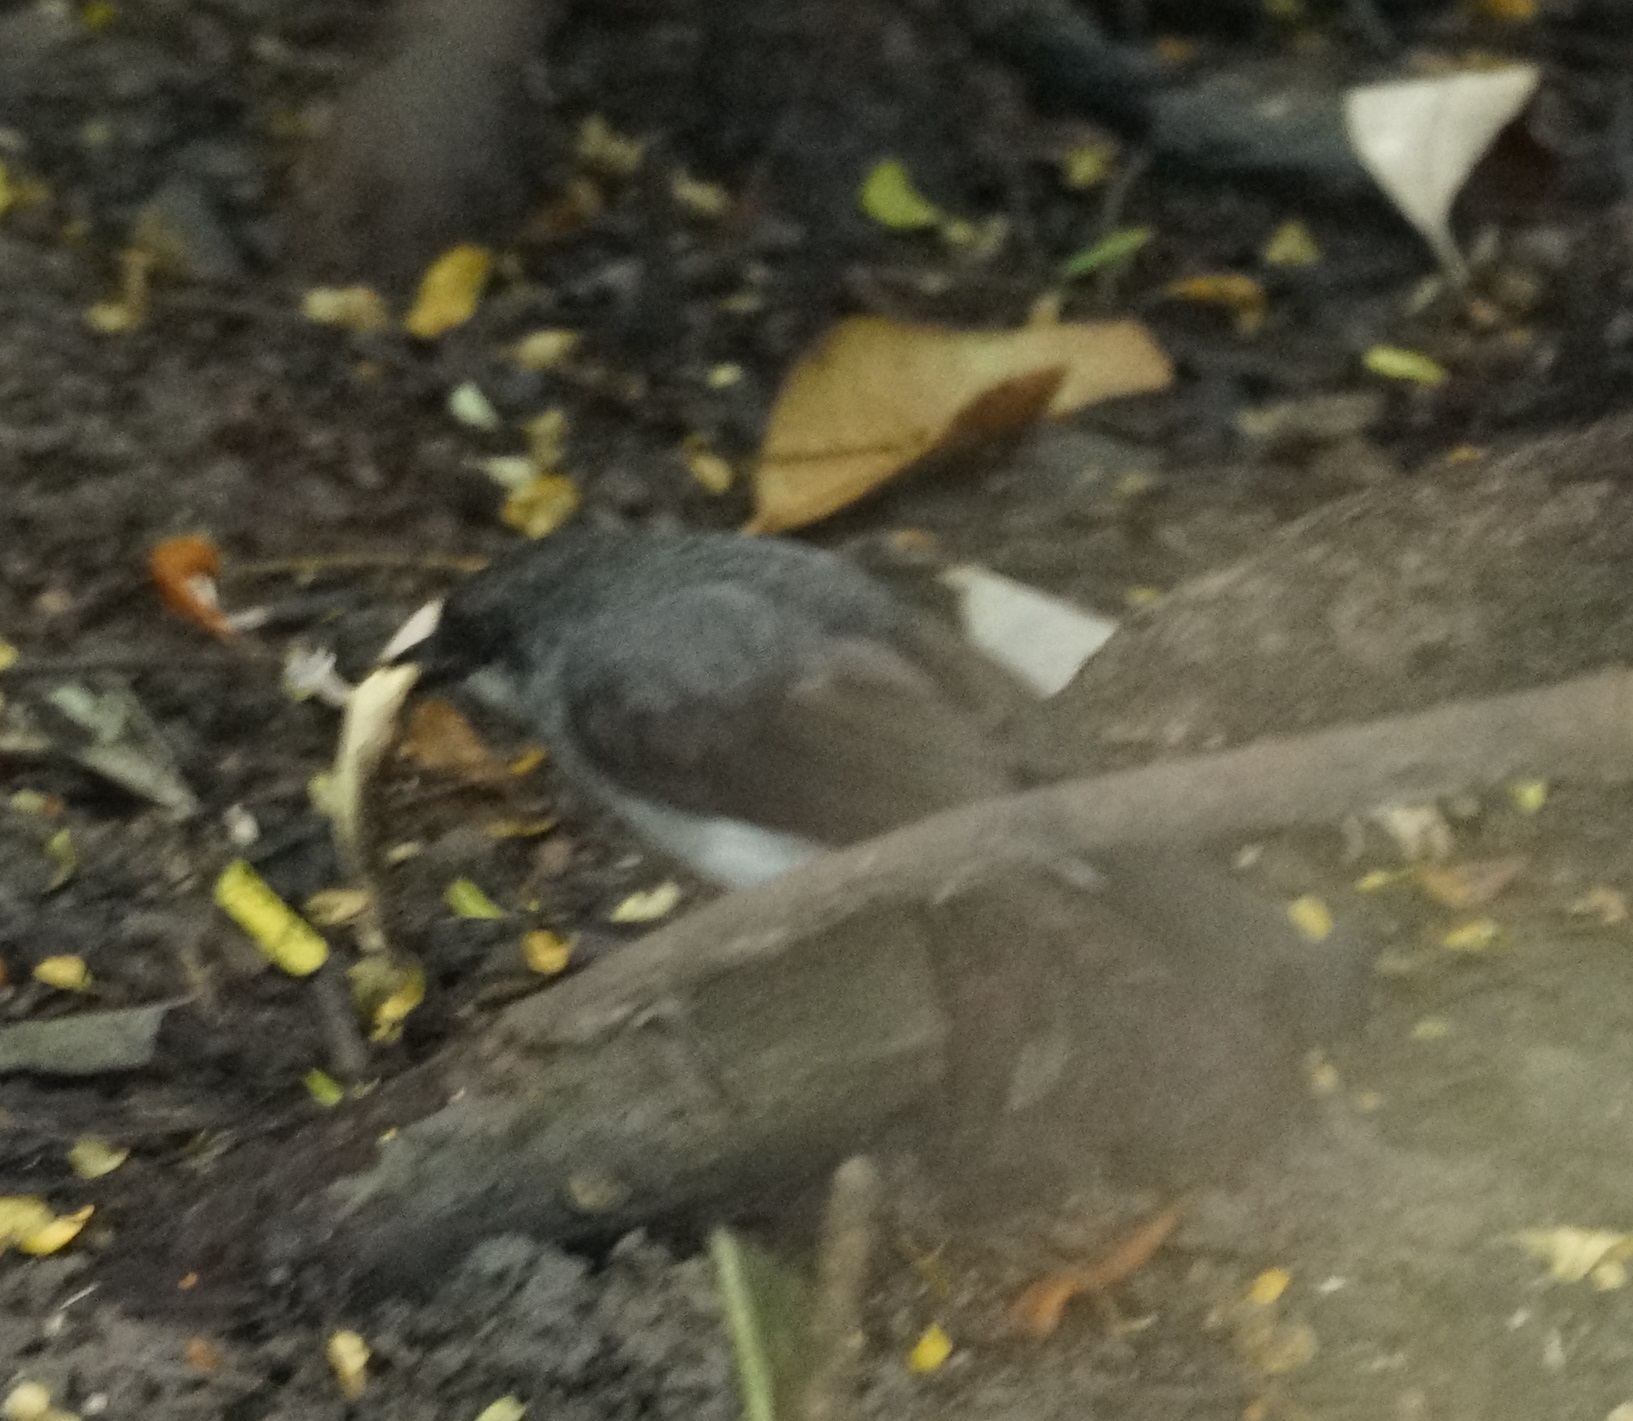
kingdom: Animalia
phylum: Chordata
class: Squamata
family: Gekkonidae
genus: Lepidodactylus
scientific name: Lepidodactylus lugubris
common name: Mourning gecko
